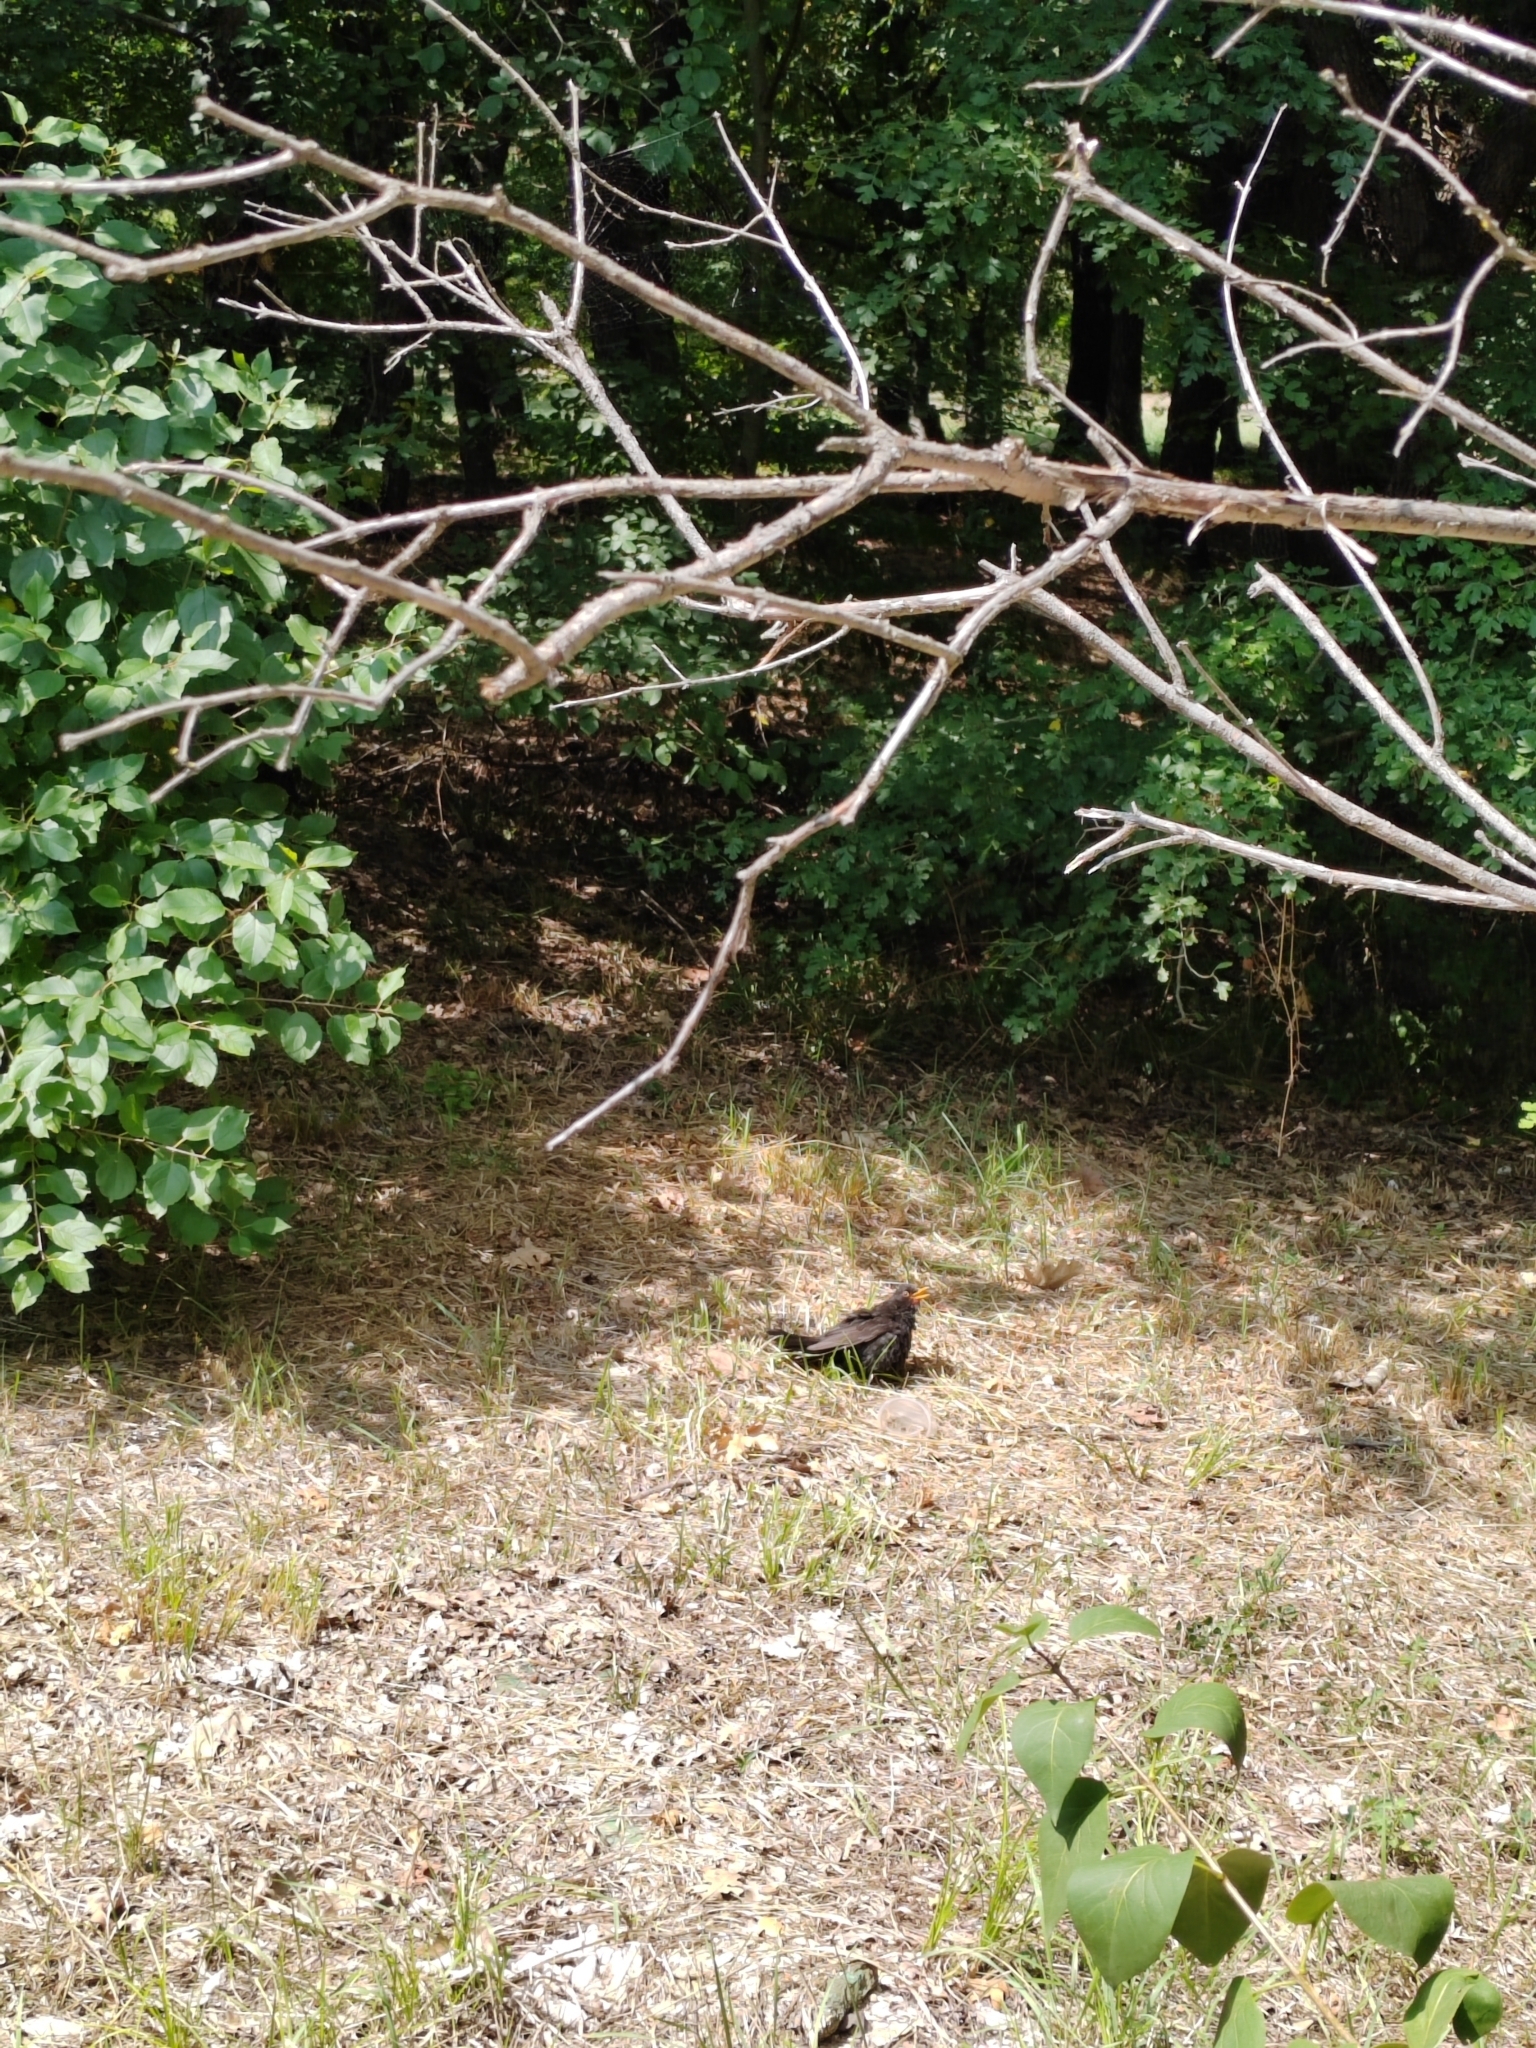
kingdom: Animalia
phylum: Chordata
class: Aves
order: Passeriformes
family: Turdidae
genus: Turdus
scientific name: Turdus merula
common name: Common blackbird
